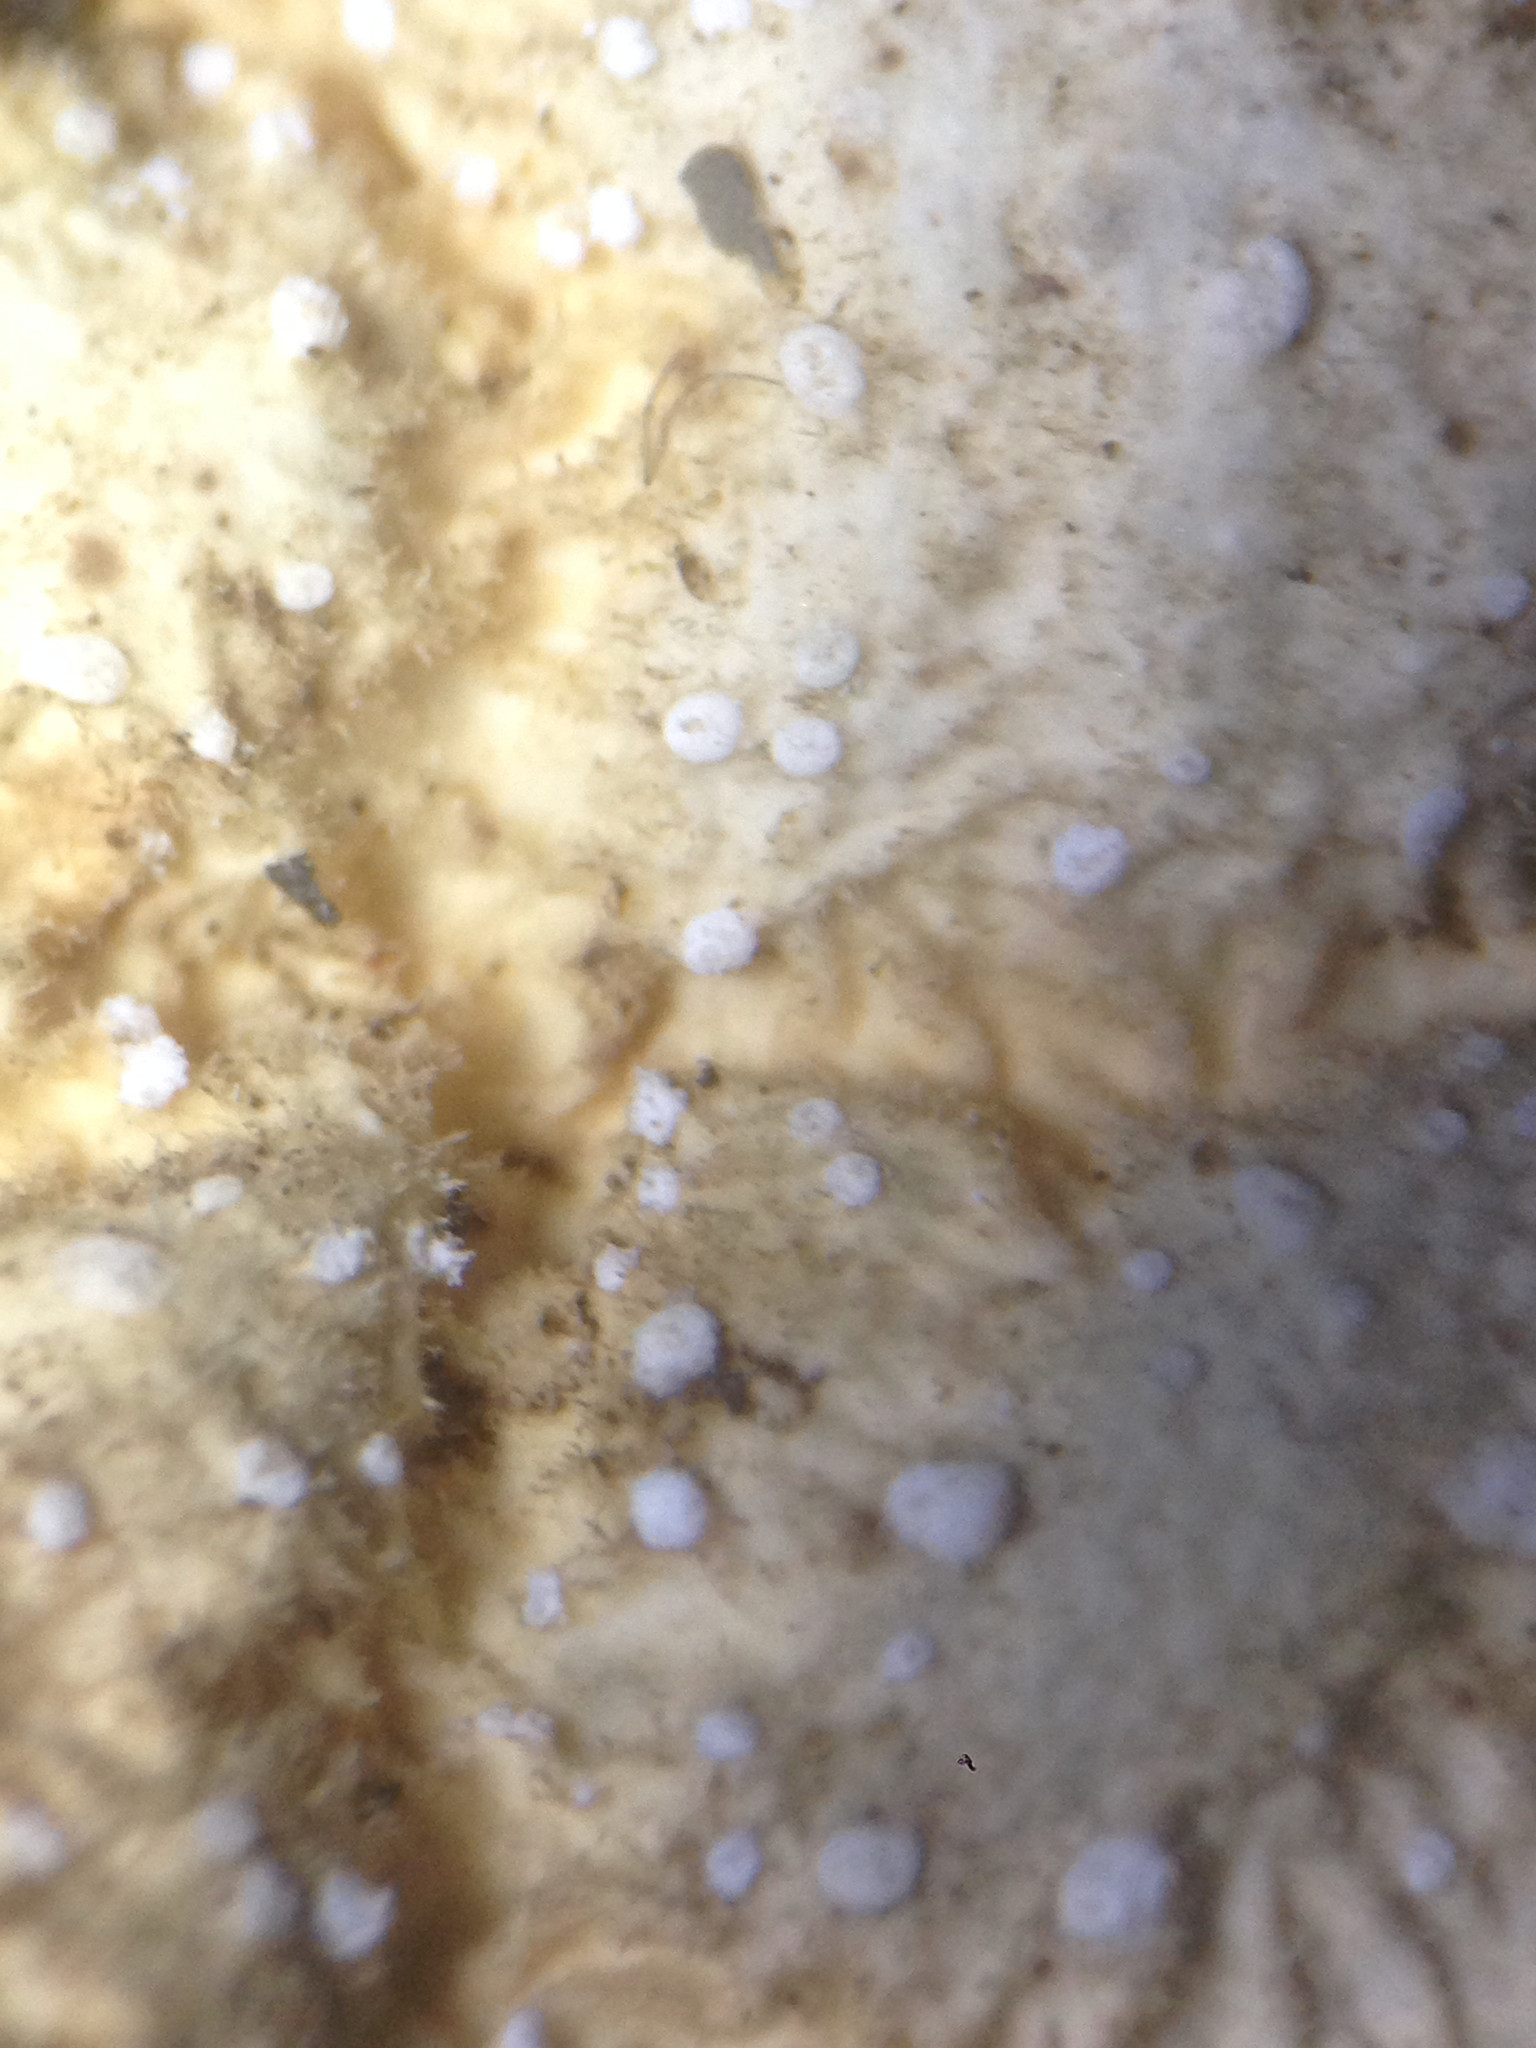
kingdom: Fungi
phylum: Ascomycota
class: Lecanoromycetes
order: Peltigerales
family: Lobariaceae
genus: Lobaria
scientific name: Lobaria anthraspis
